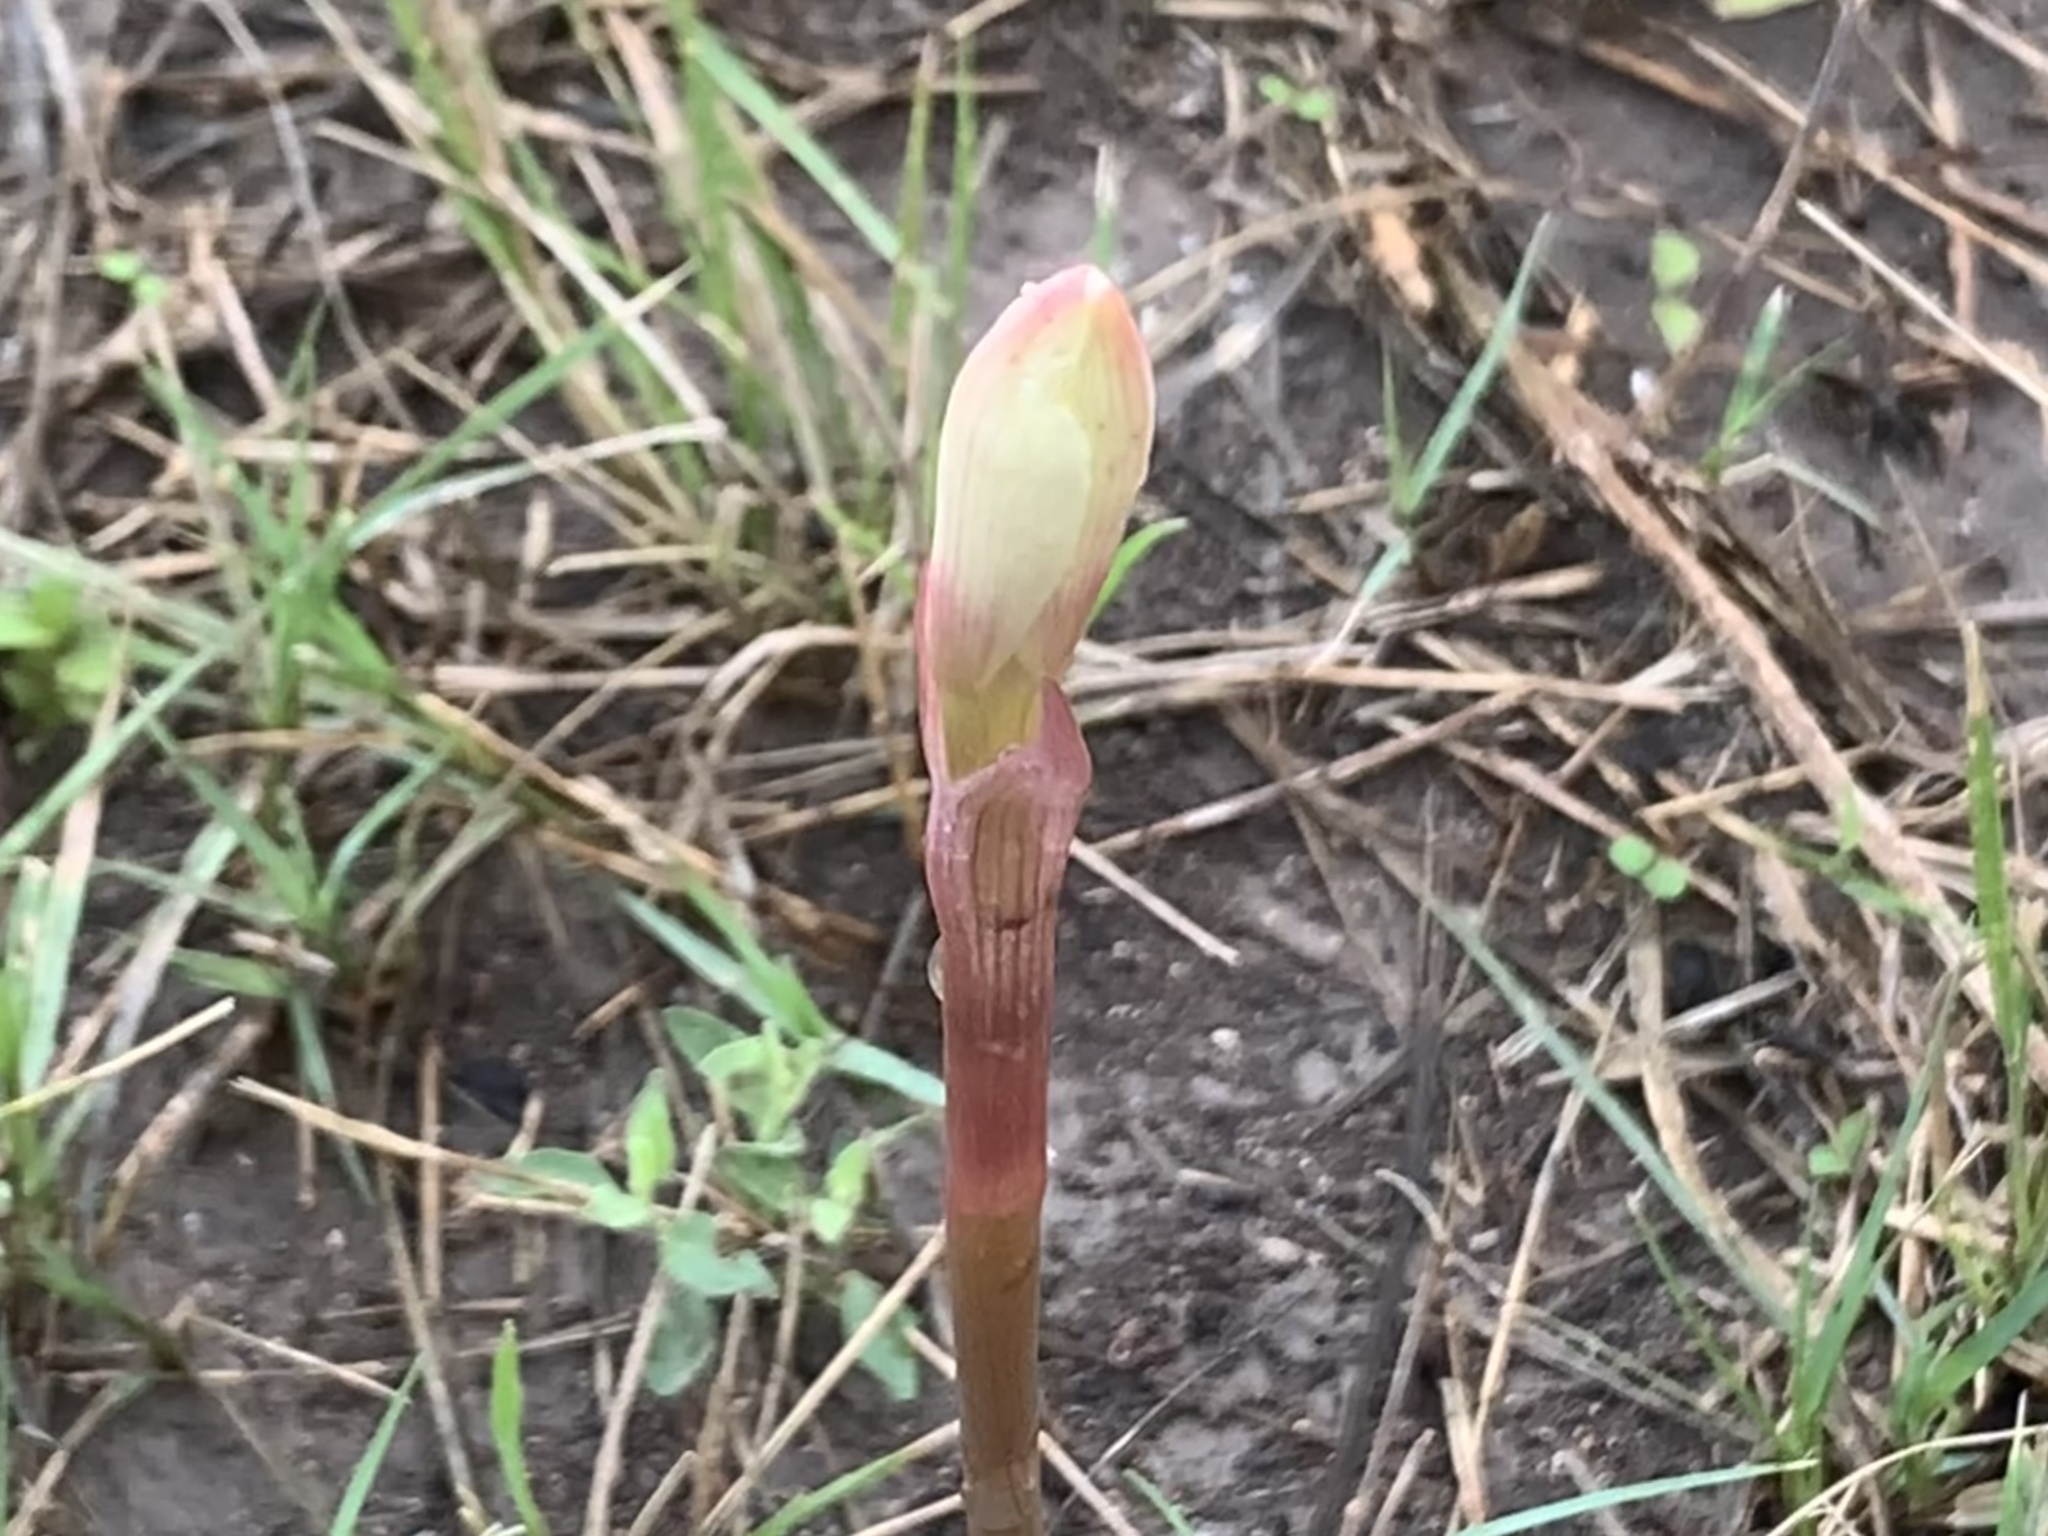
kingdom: Plantae
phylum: Tracheophyta
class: Liliopsida
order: Asparagales
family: Amaryllidaceae
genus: Zephyranthes
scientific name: Zephyranthes drummondii
